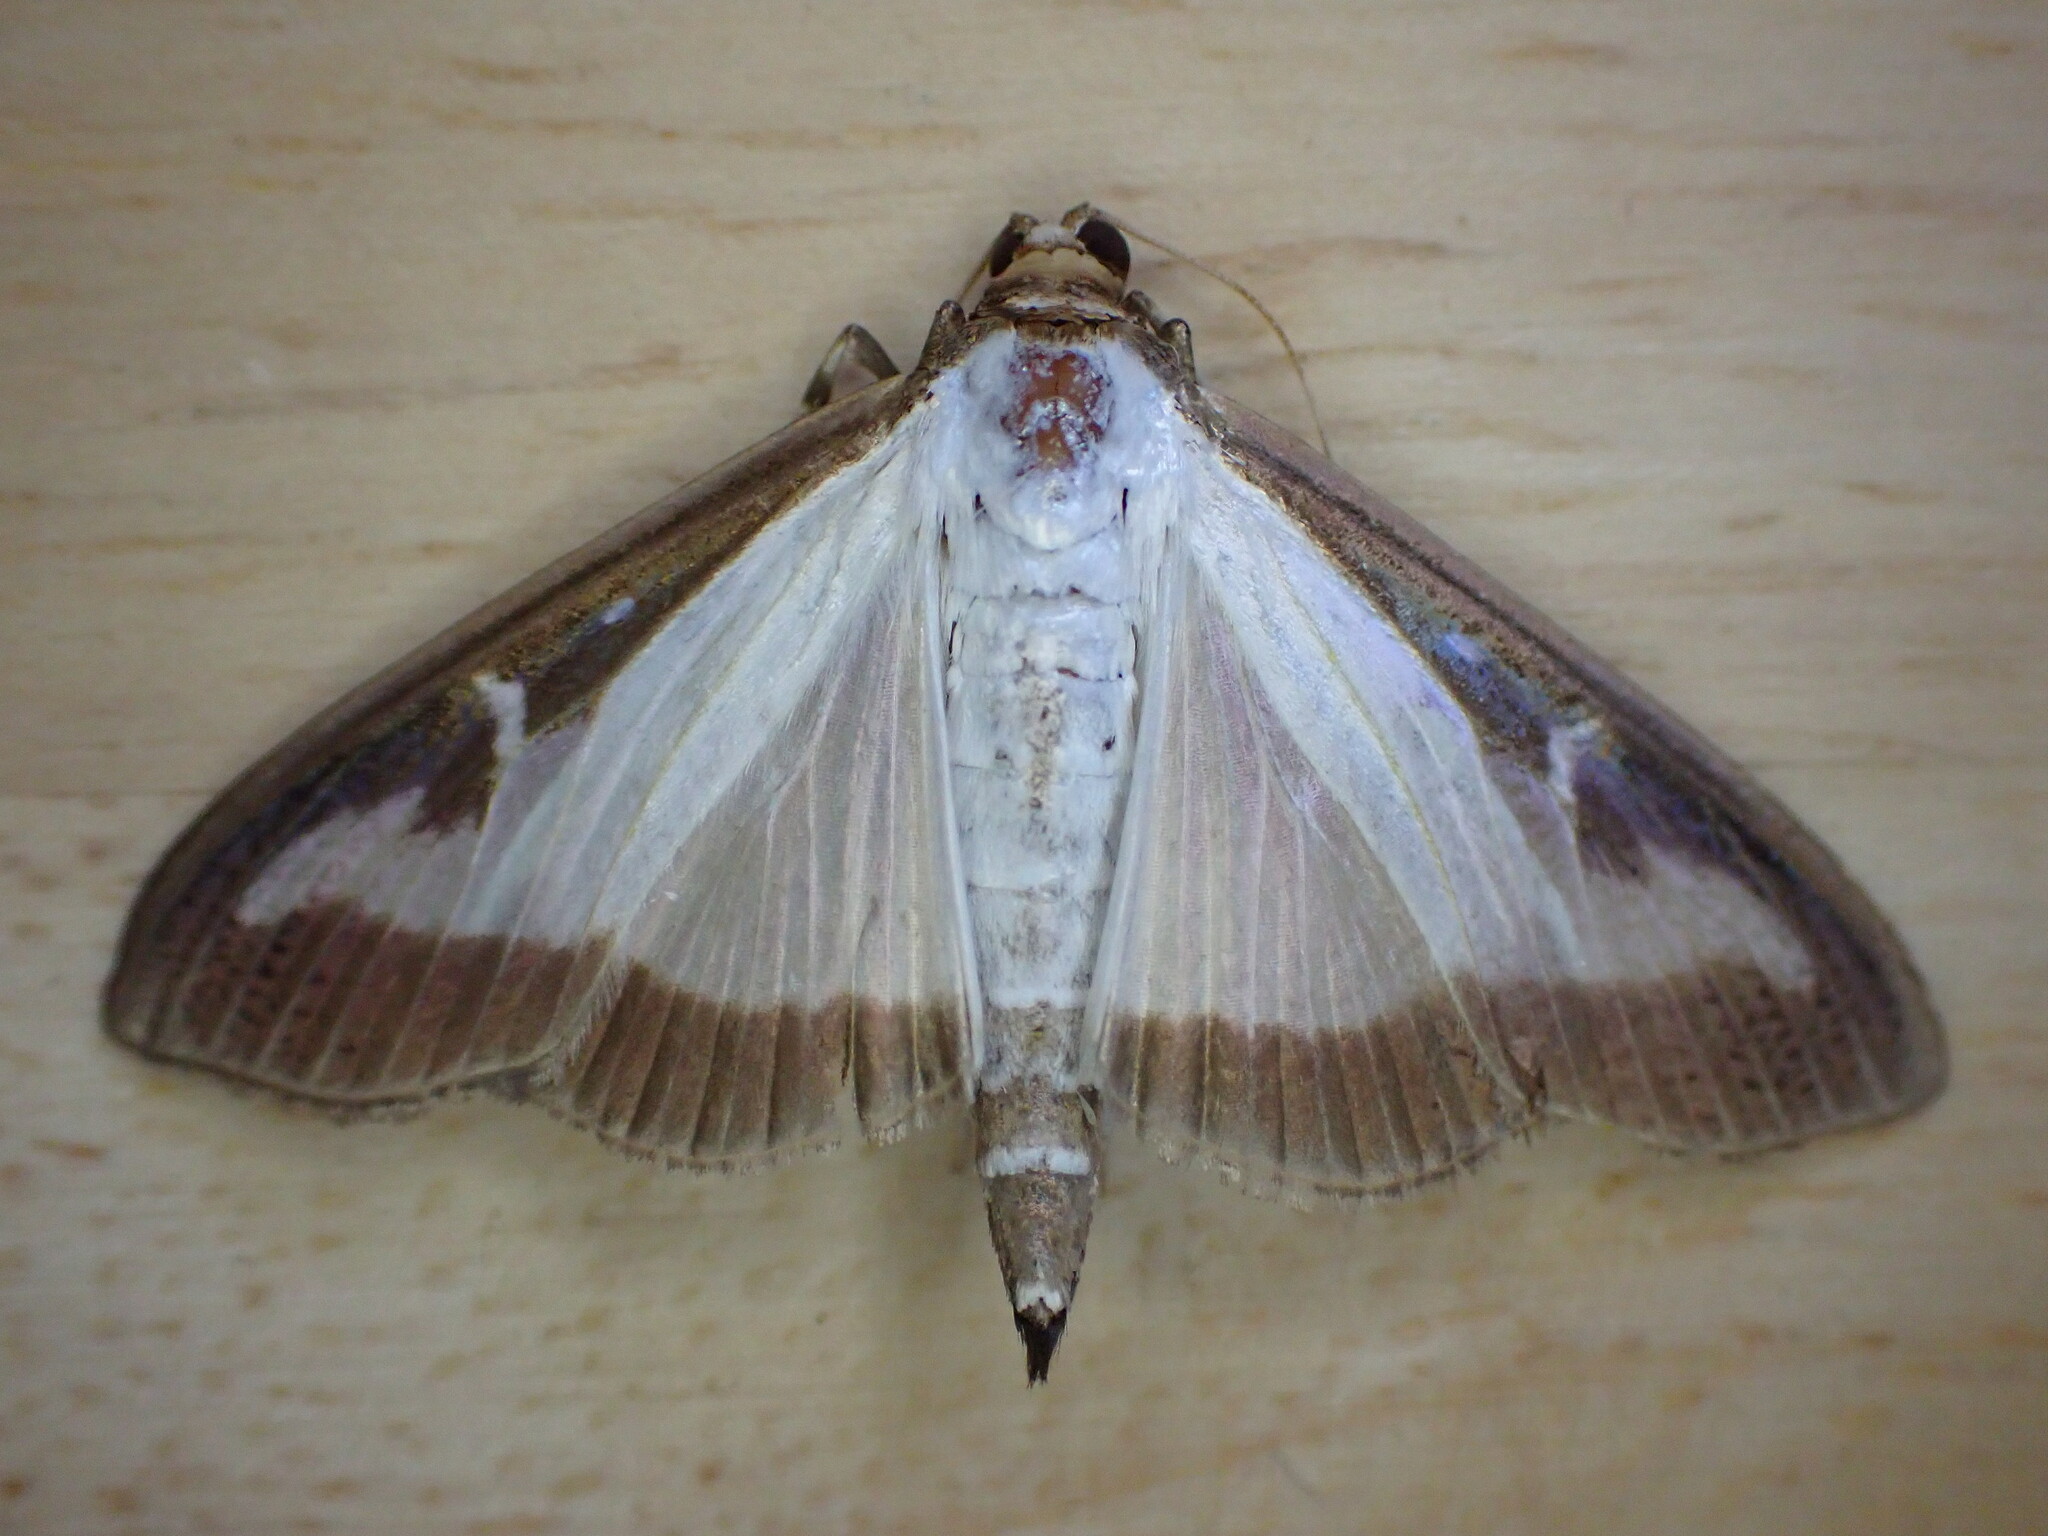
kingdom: Animalia
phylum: Arthropoda
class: Insecta
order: Lepidoptera
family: Crambidae
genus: Cydalima
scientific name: Cydalima perspectalis
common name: Box tree moth
